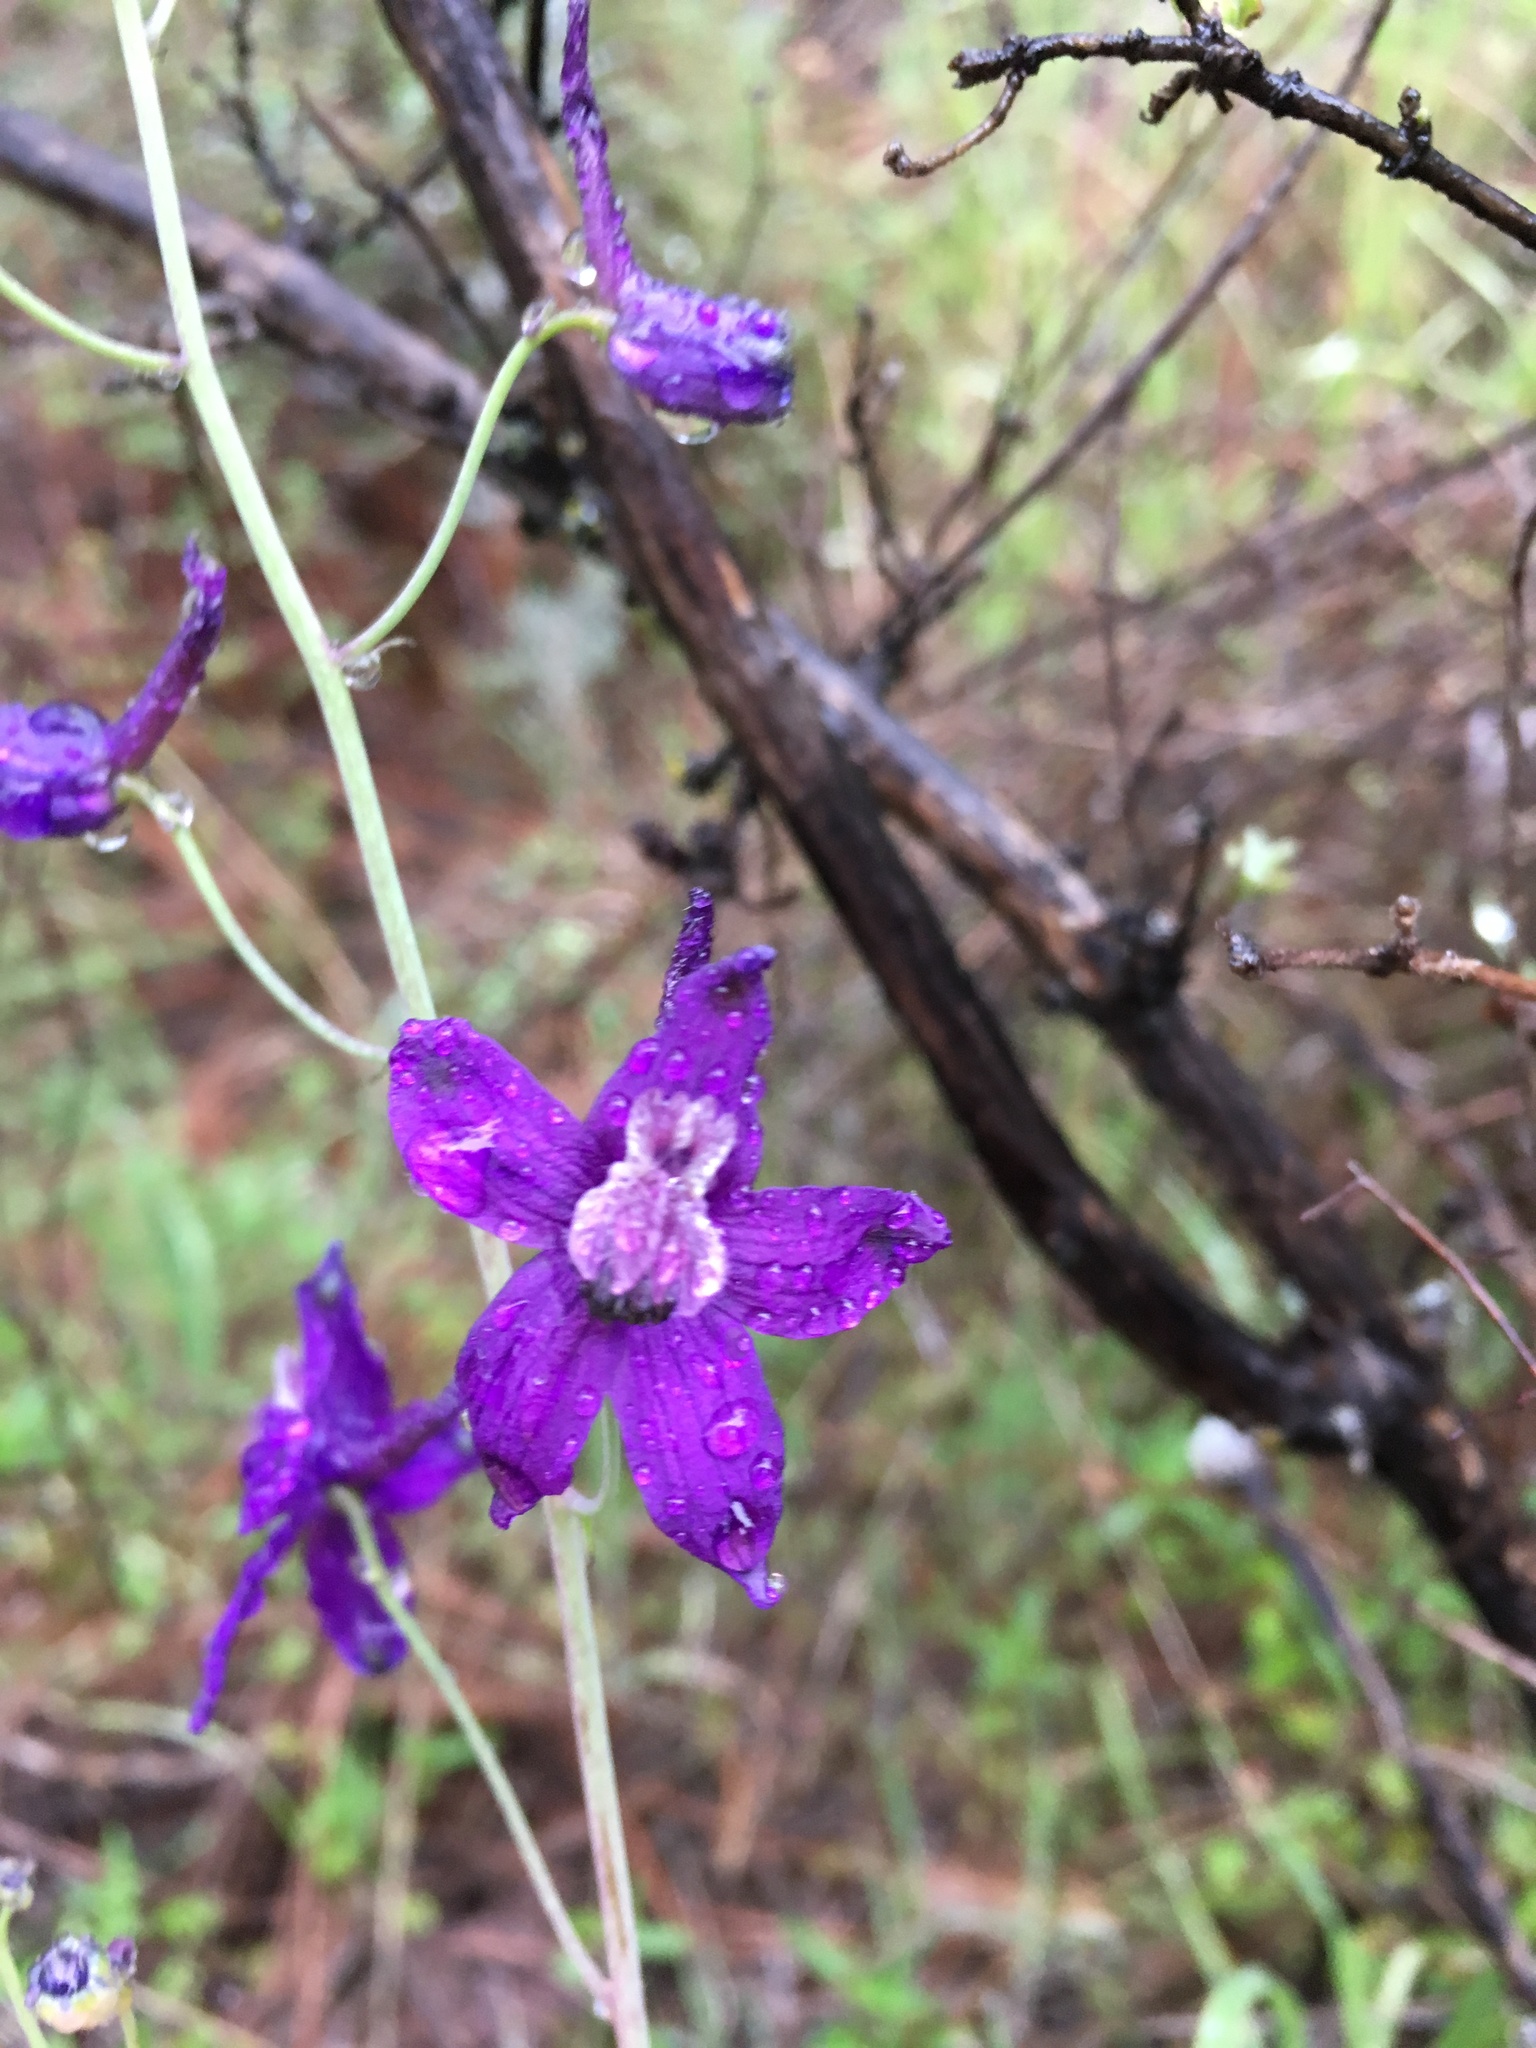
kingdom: Plantae
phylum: Tracheophyta
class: Magnoliopsida
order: Ranunculales
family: Ranunculaceae
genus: Delphinium
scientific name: Delphinium patens
